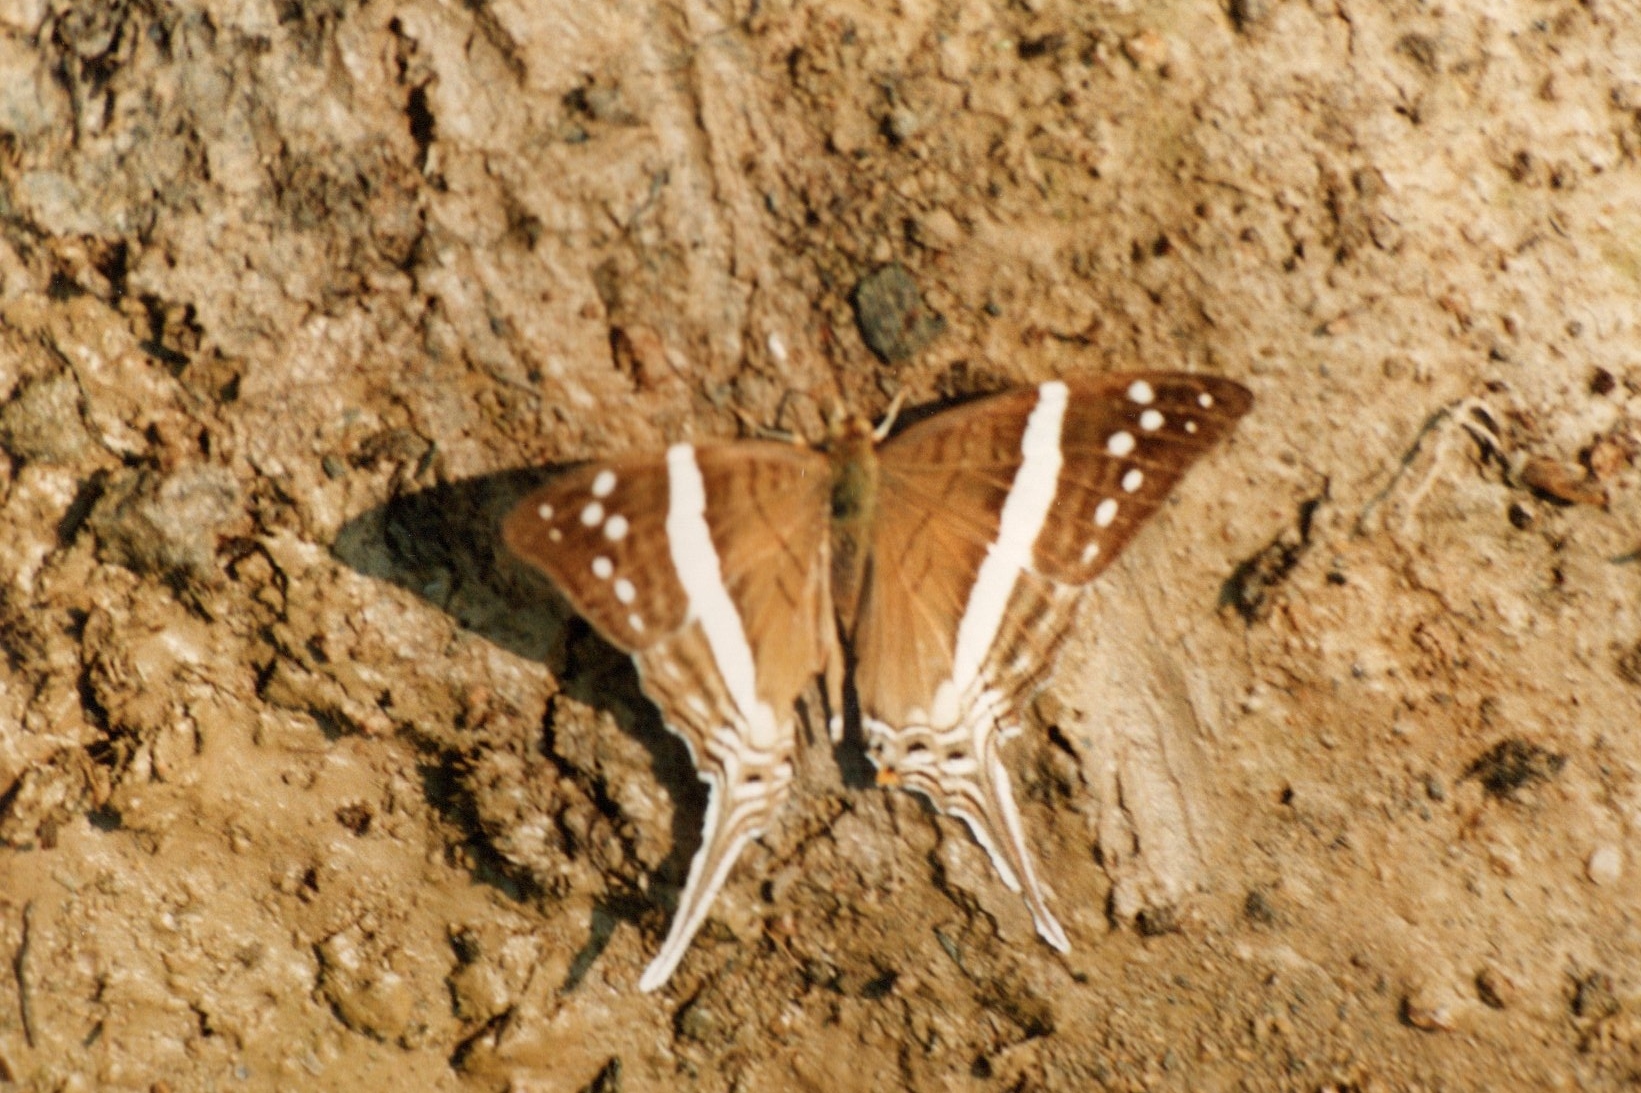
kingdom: Animalia
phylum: Arthropoda
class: Insecta
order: Lepidoptera
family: Nymphalidae
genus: Marpesia
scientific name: Marpesia crethon
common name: Crethon daggerwing
